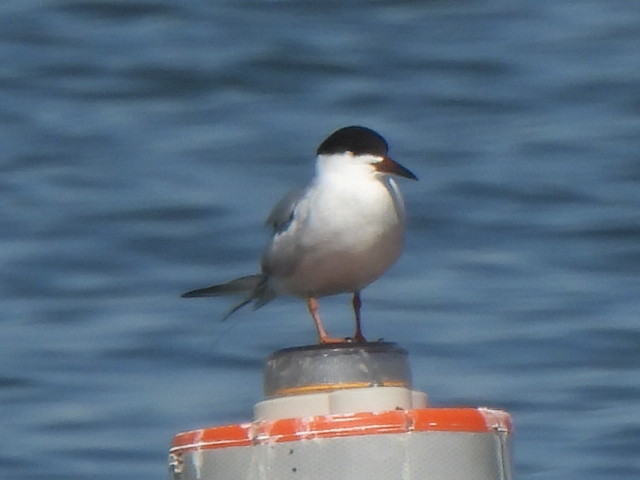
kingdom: Animalia
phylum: Chordata
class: Aves
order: Charadriiformes
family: Laridae
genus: Sterna
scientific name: Sterna forsteri
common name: Forster's tern
